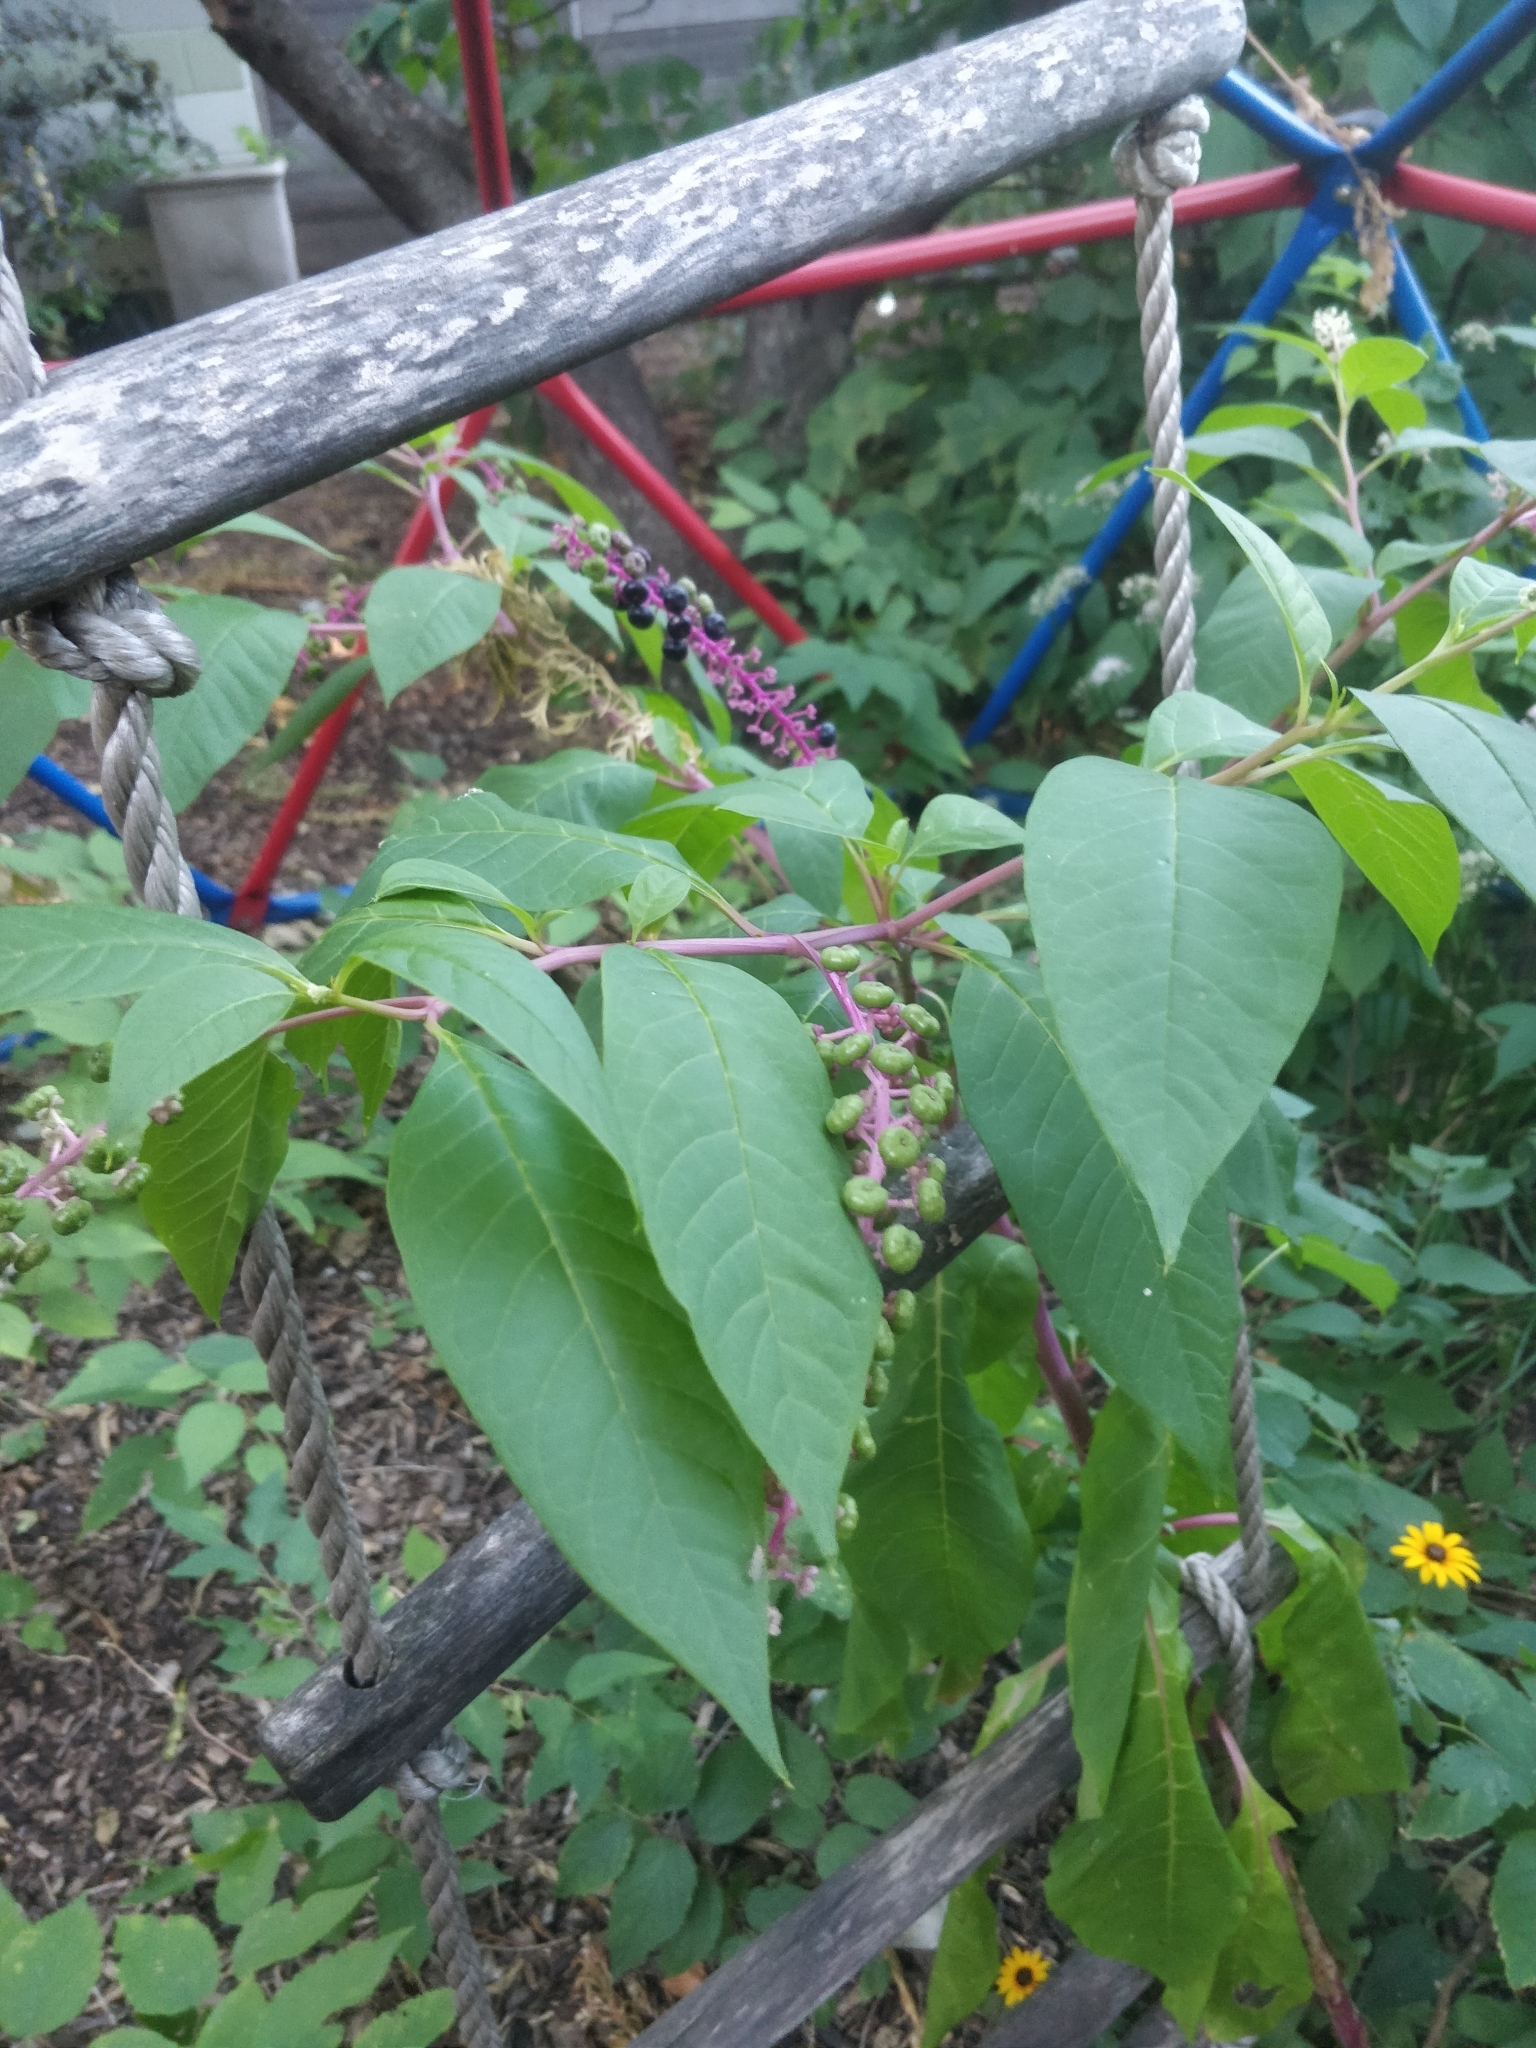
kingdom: Plantae
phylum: Tracheophyta
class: Magnoliopsida
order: Caryophyllales
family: Phytolaccaceae
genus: Phytolacca
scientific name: Phytolacca americana
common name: American pokeweed
